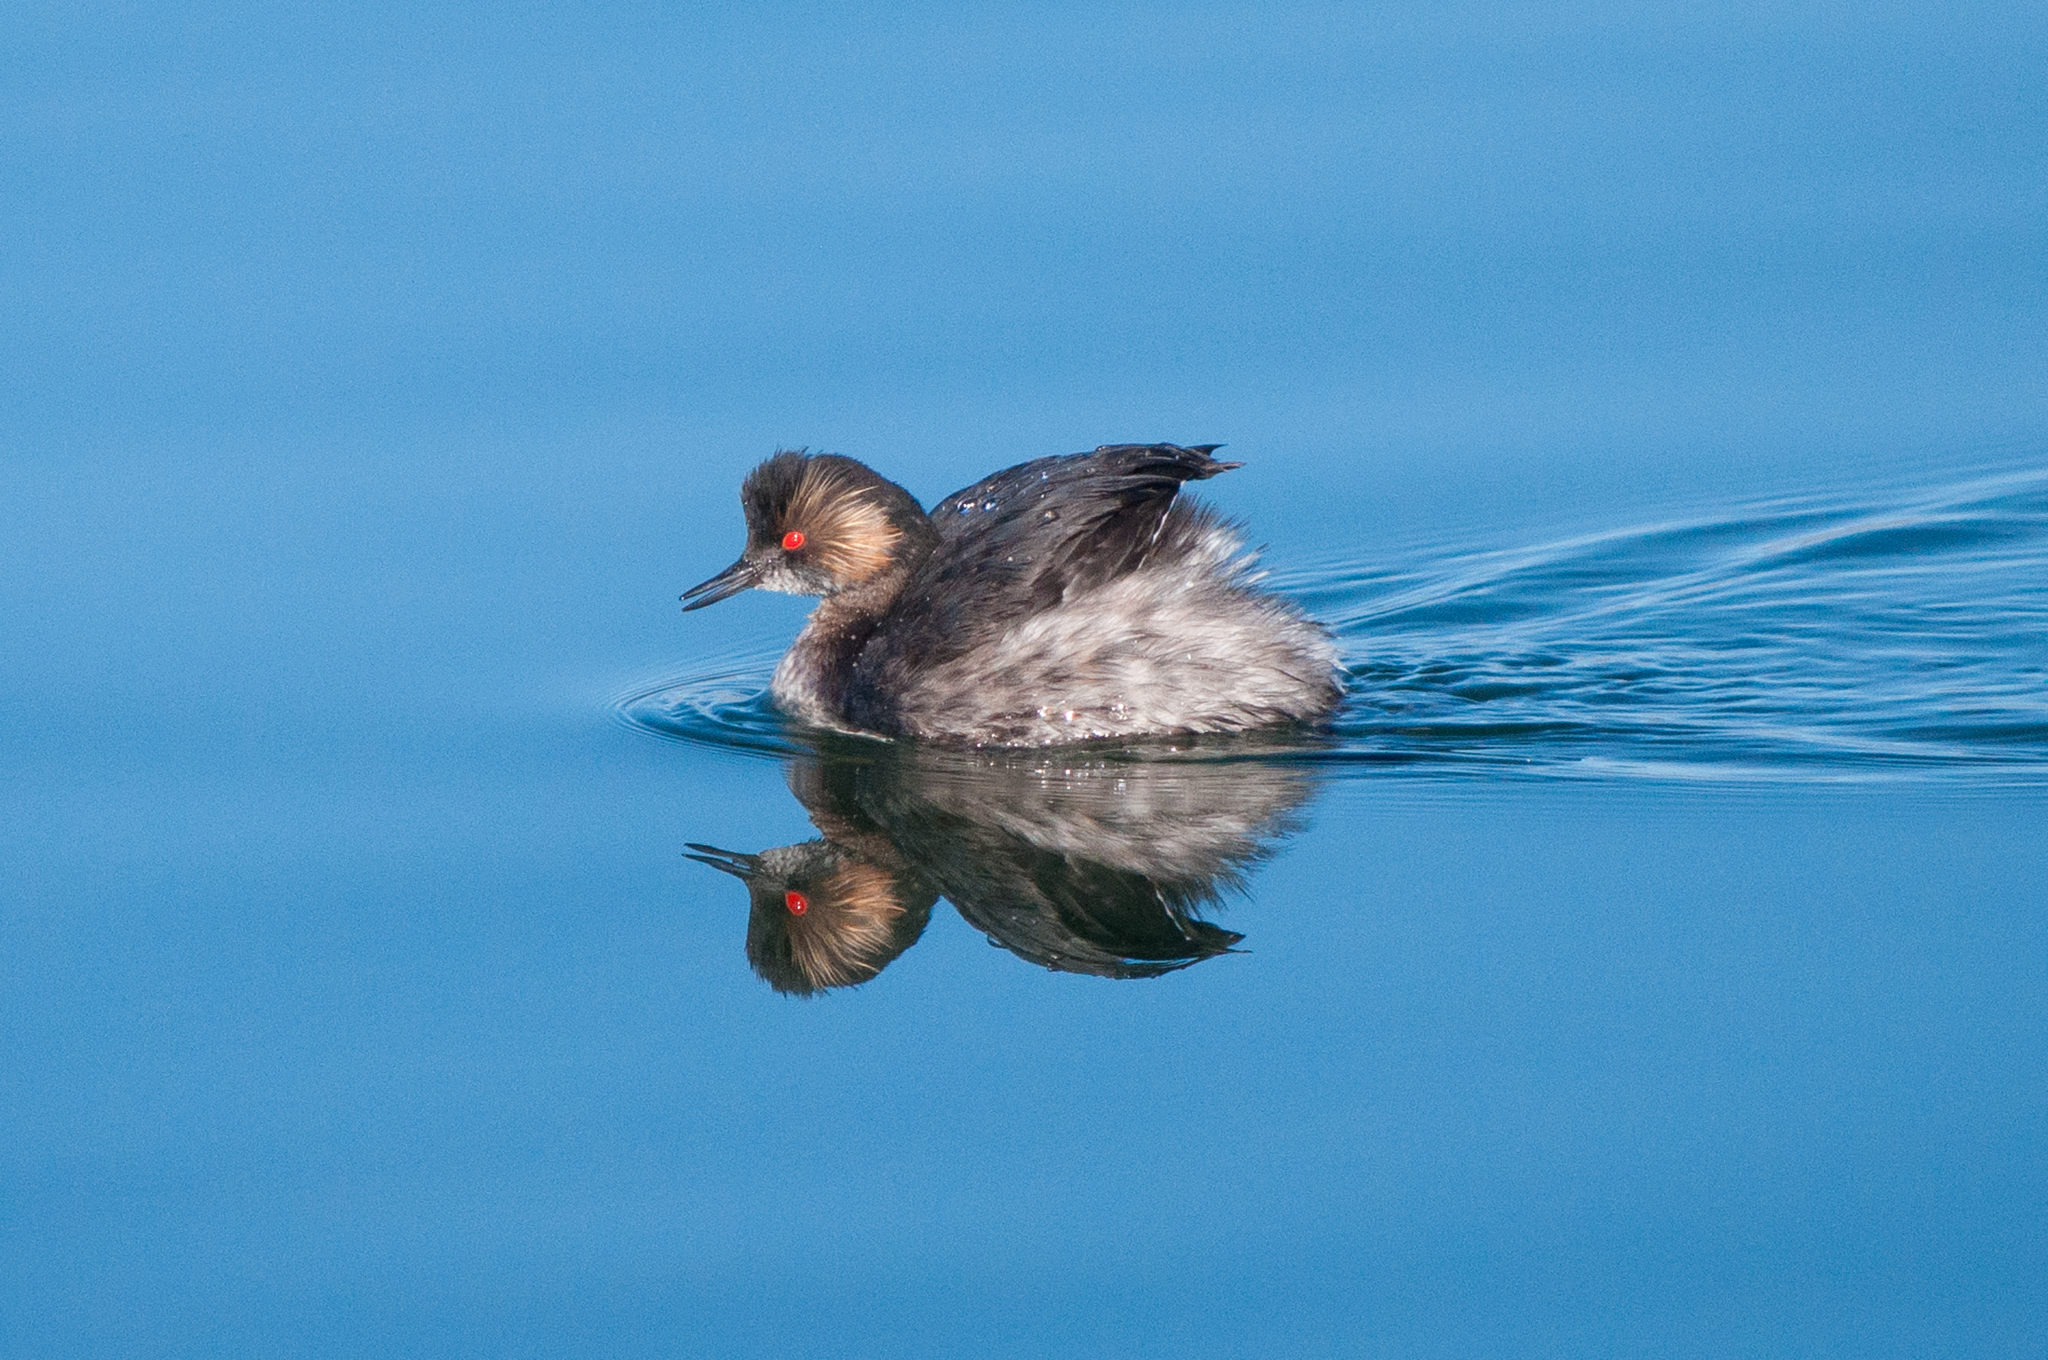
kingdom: Animalia
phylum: Chordata
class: Aves
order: Podicipediformes
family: Podicipedidae
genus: Podiceps
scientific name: Podiceps nigricollis
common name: Black-necked grebe
